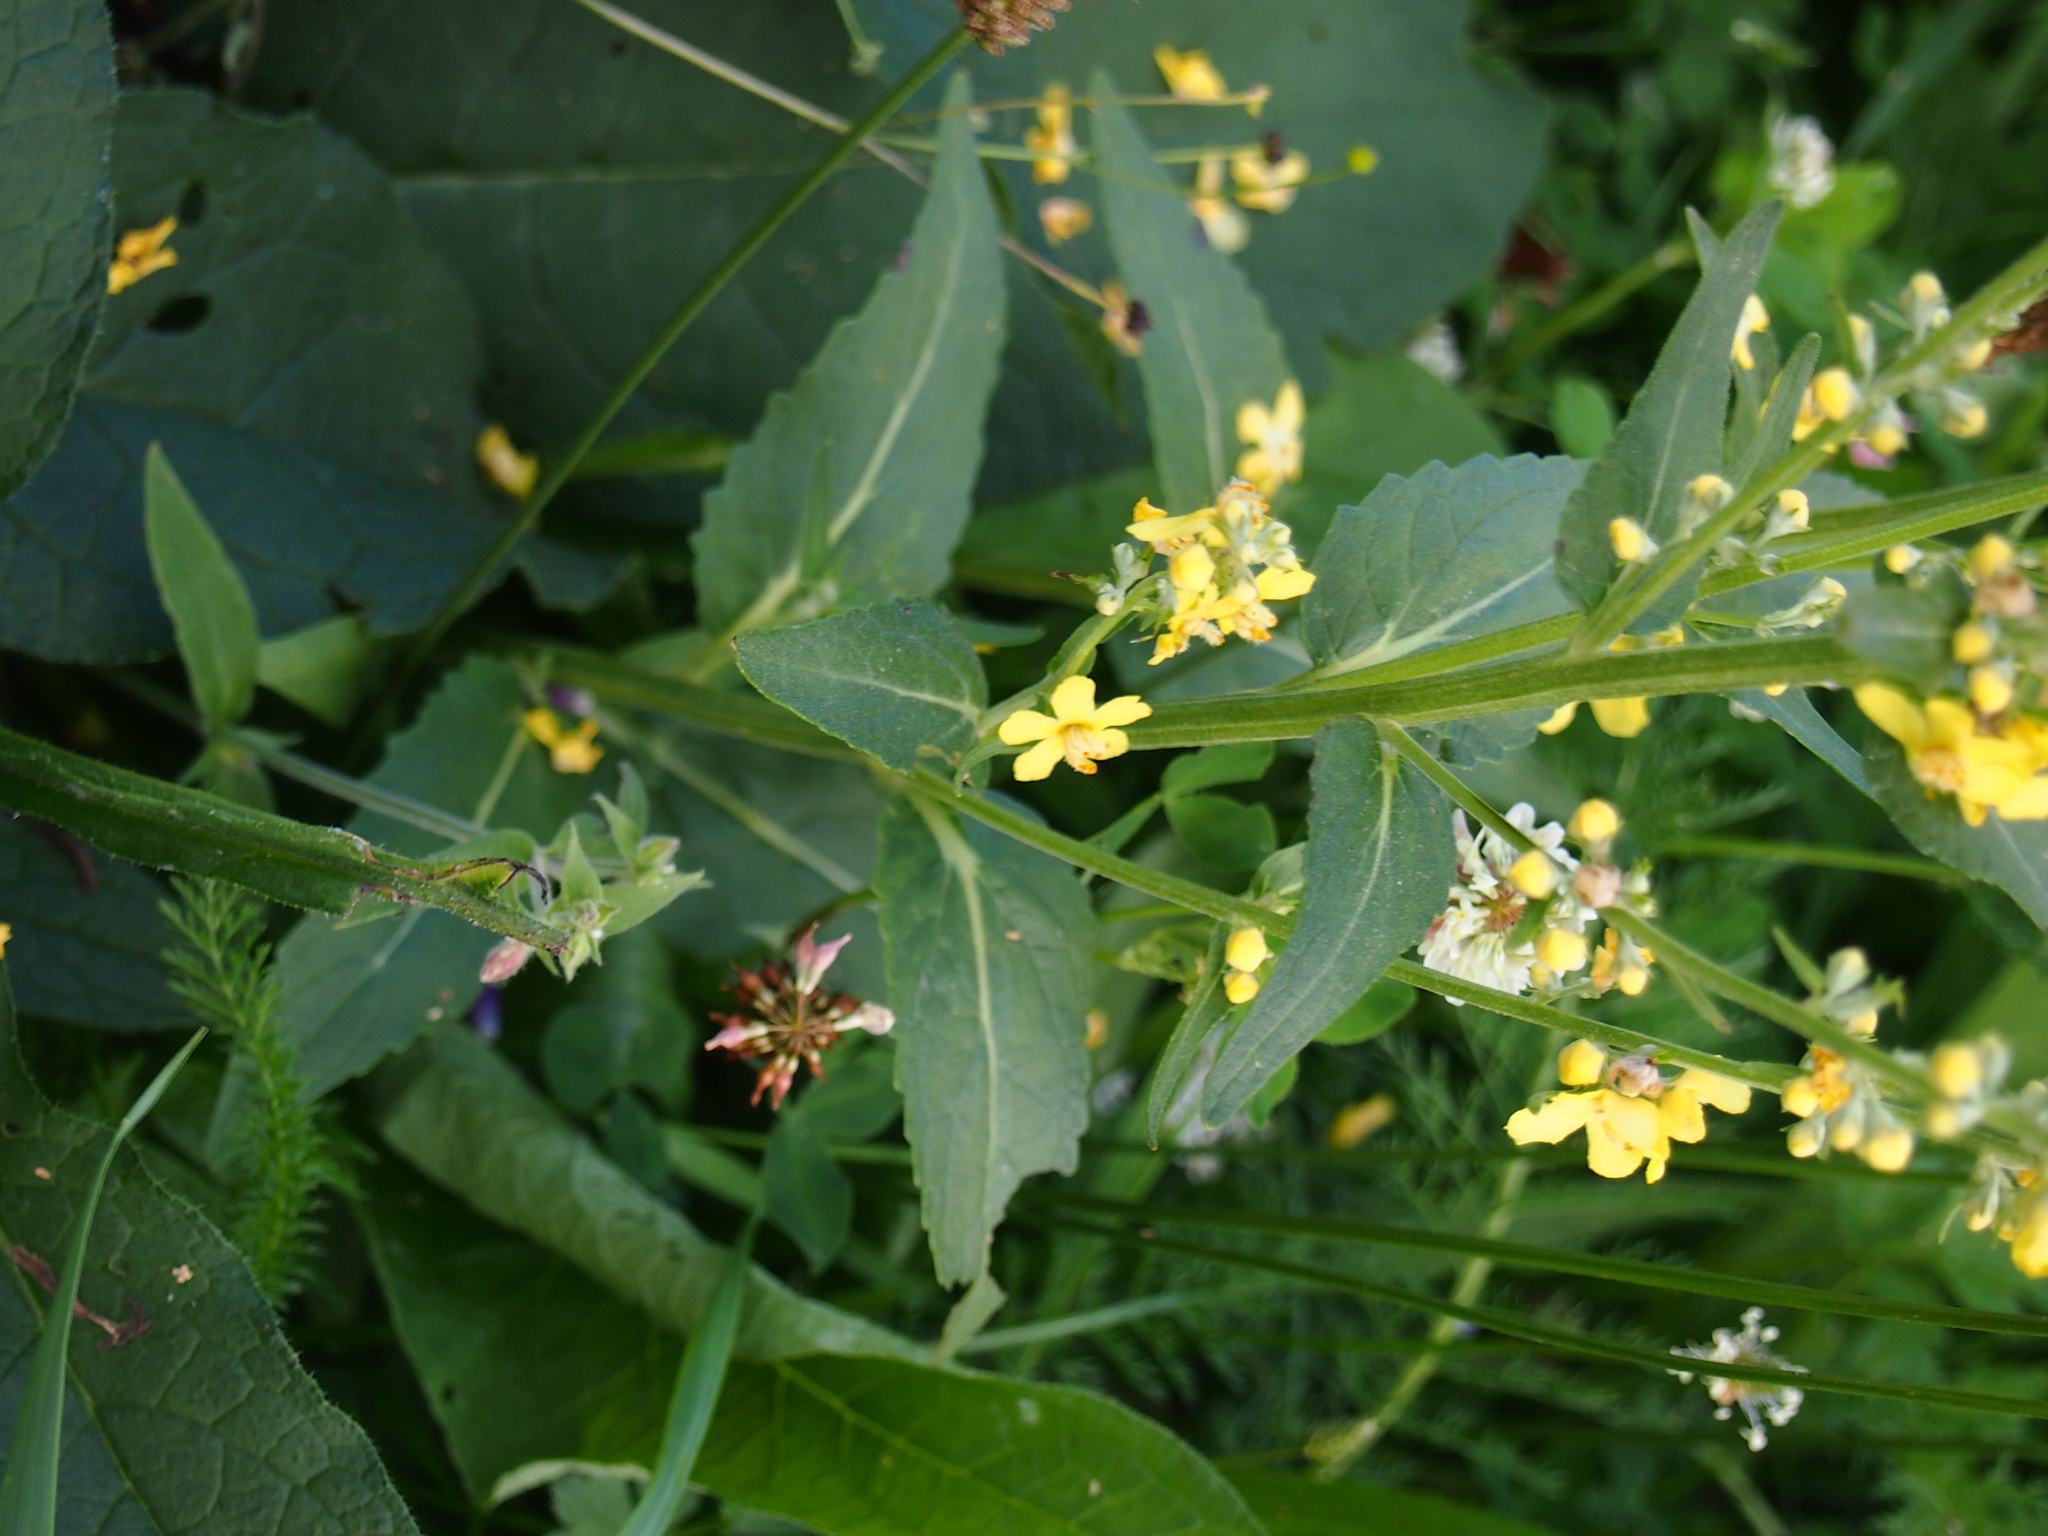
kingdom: Plantae
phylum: Tracheophyta
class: Magnoliopsida
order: Lamiales
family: Scrophulariaceae
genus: Verbascum
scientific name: Verbascum lychnitis
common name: White mullein
